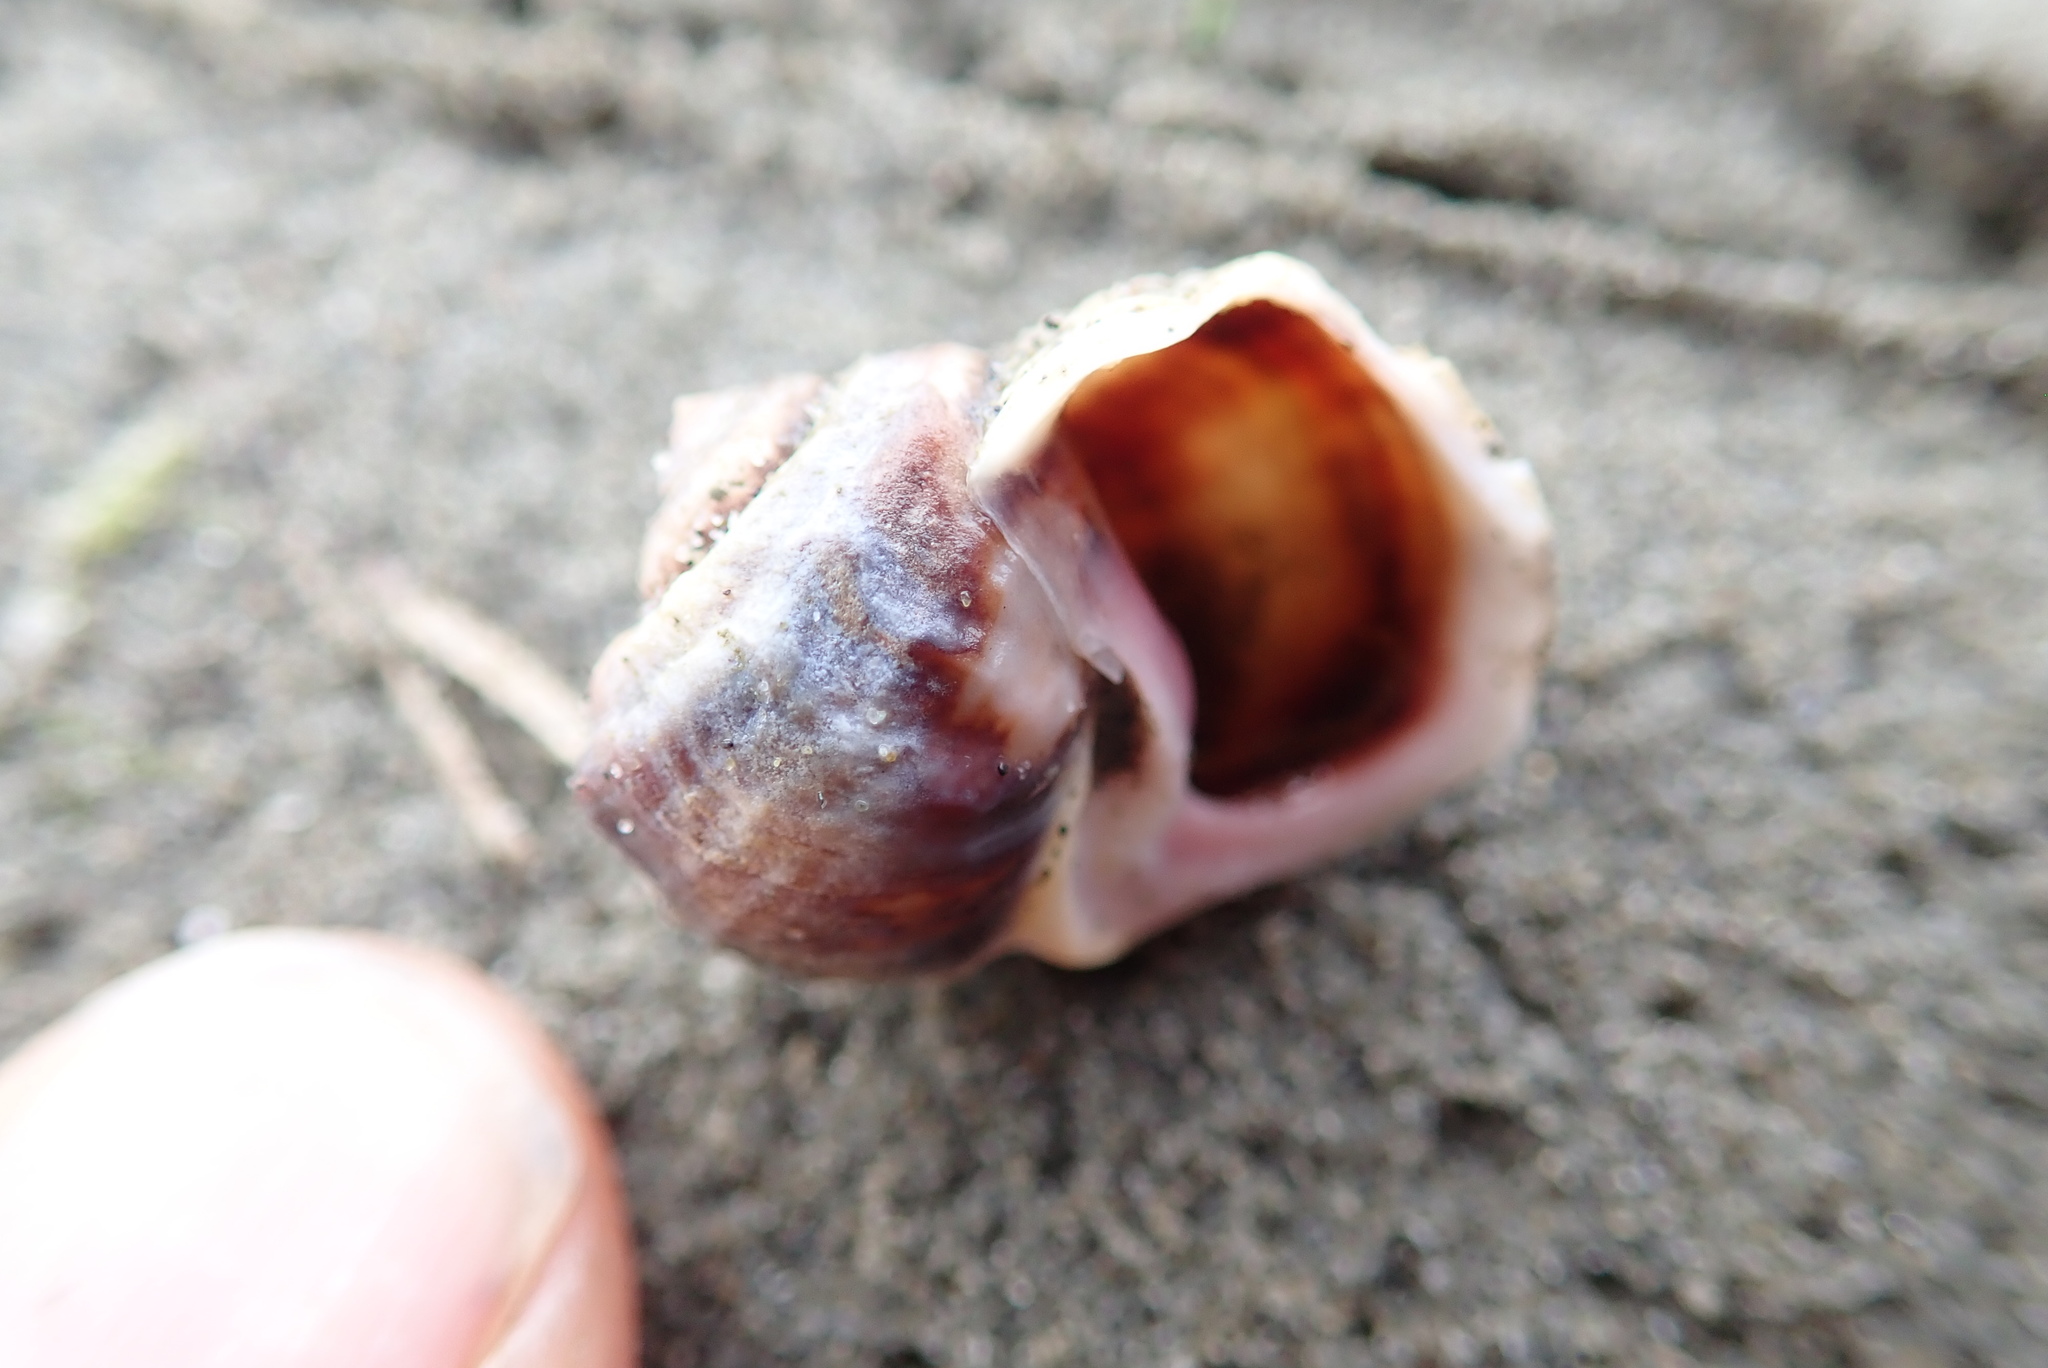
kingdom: Animalia
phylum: Mollusca
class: Gastropoda
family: Amphibolidae
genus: Amphibola
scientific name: Amphibola crenata
